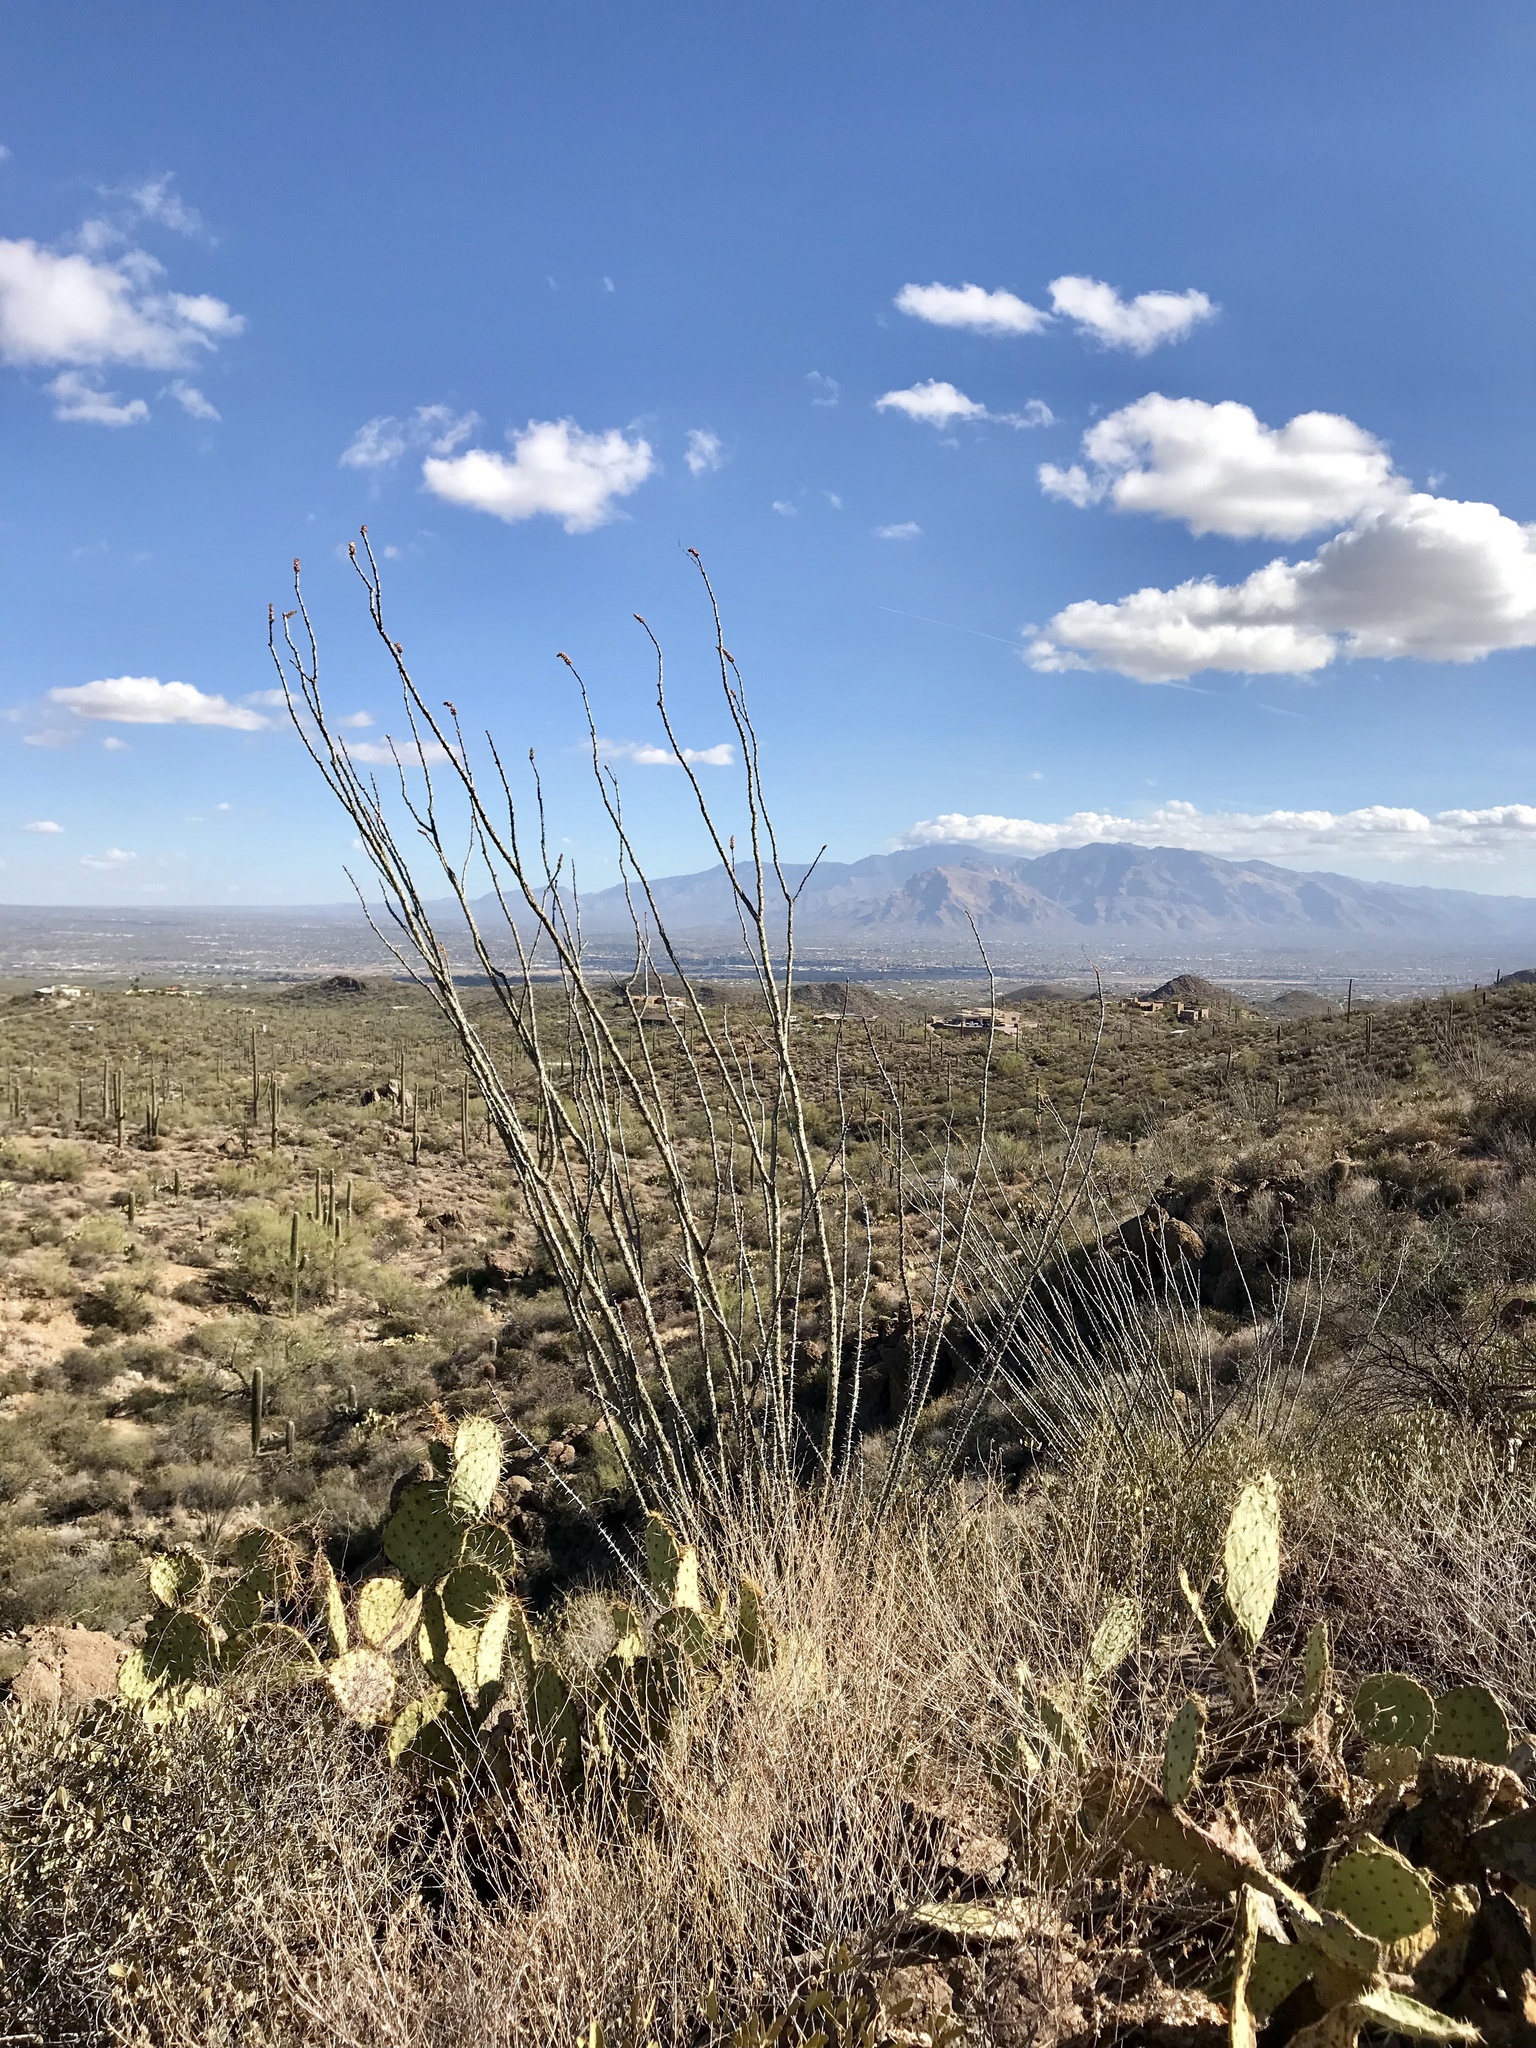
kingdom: Plantae
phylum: Tracheophyta
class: Magnoliopsida
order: Ericales
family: Fouquieriaceae
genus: Fouquieria
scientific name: Fouquieria splendens
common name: Vine-cactus
